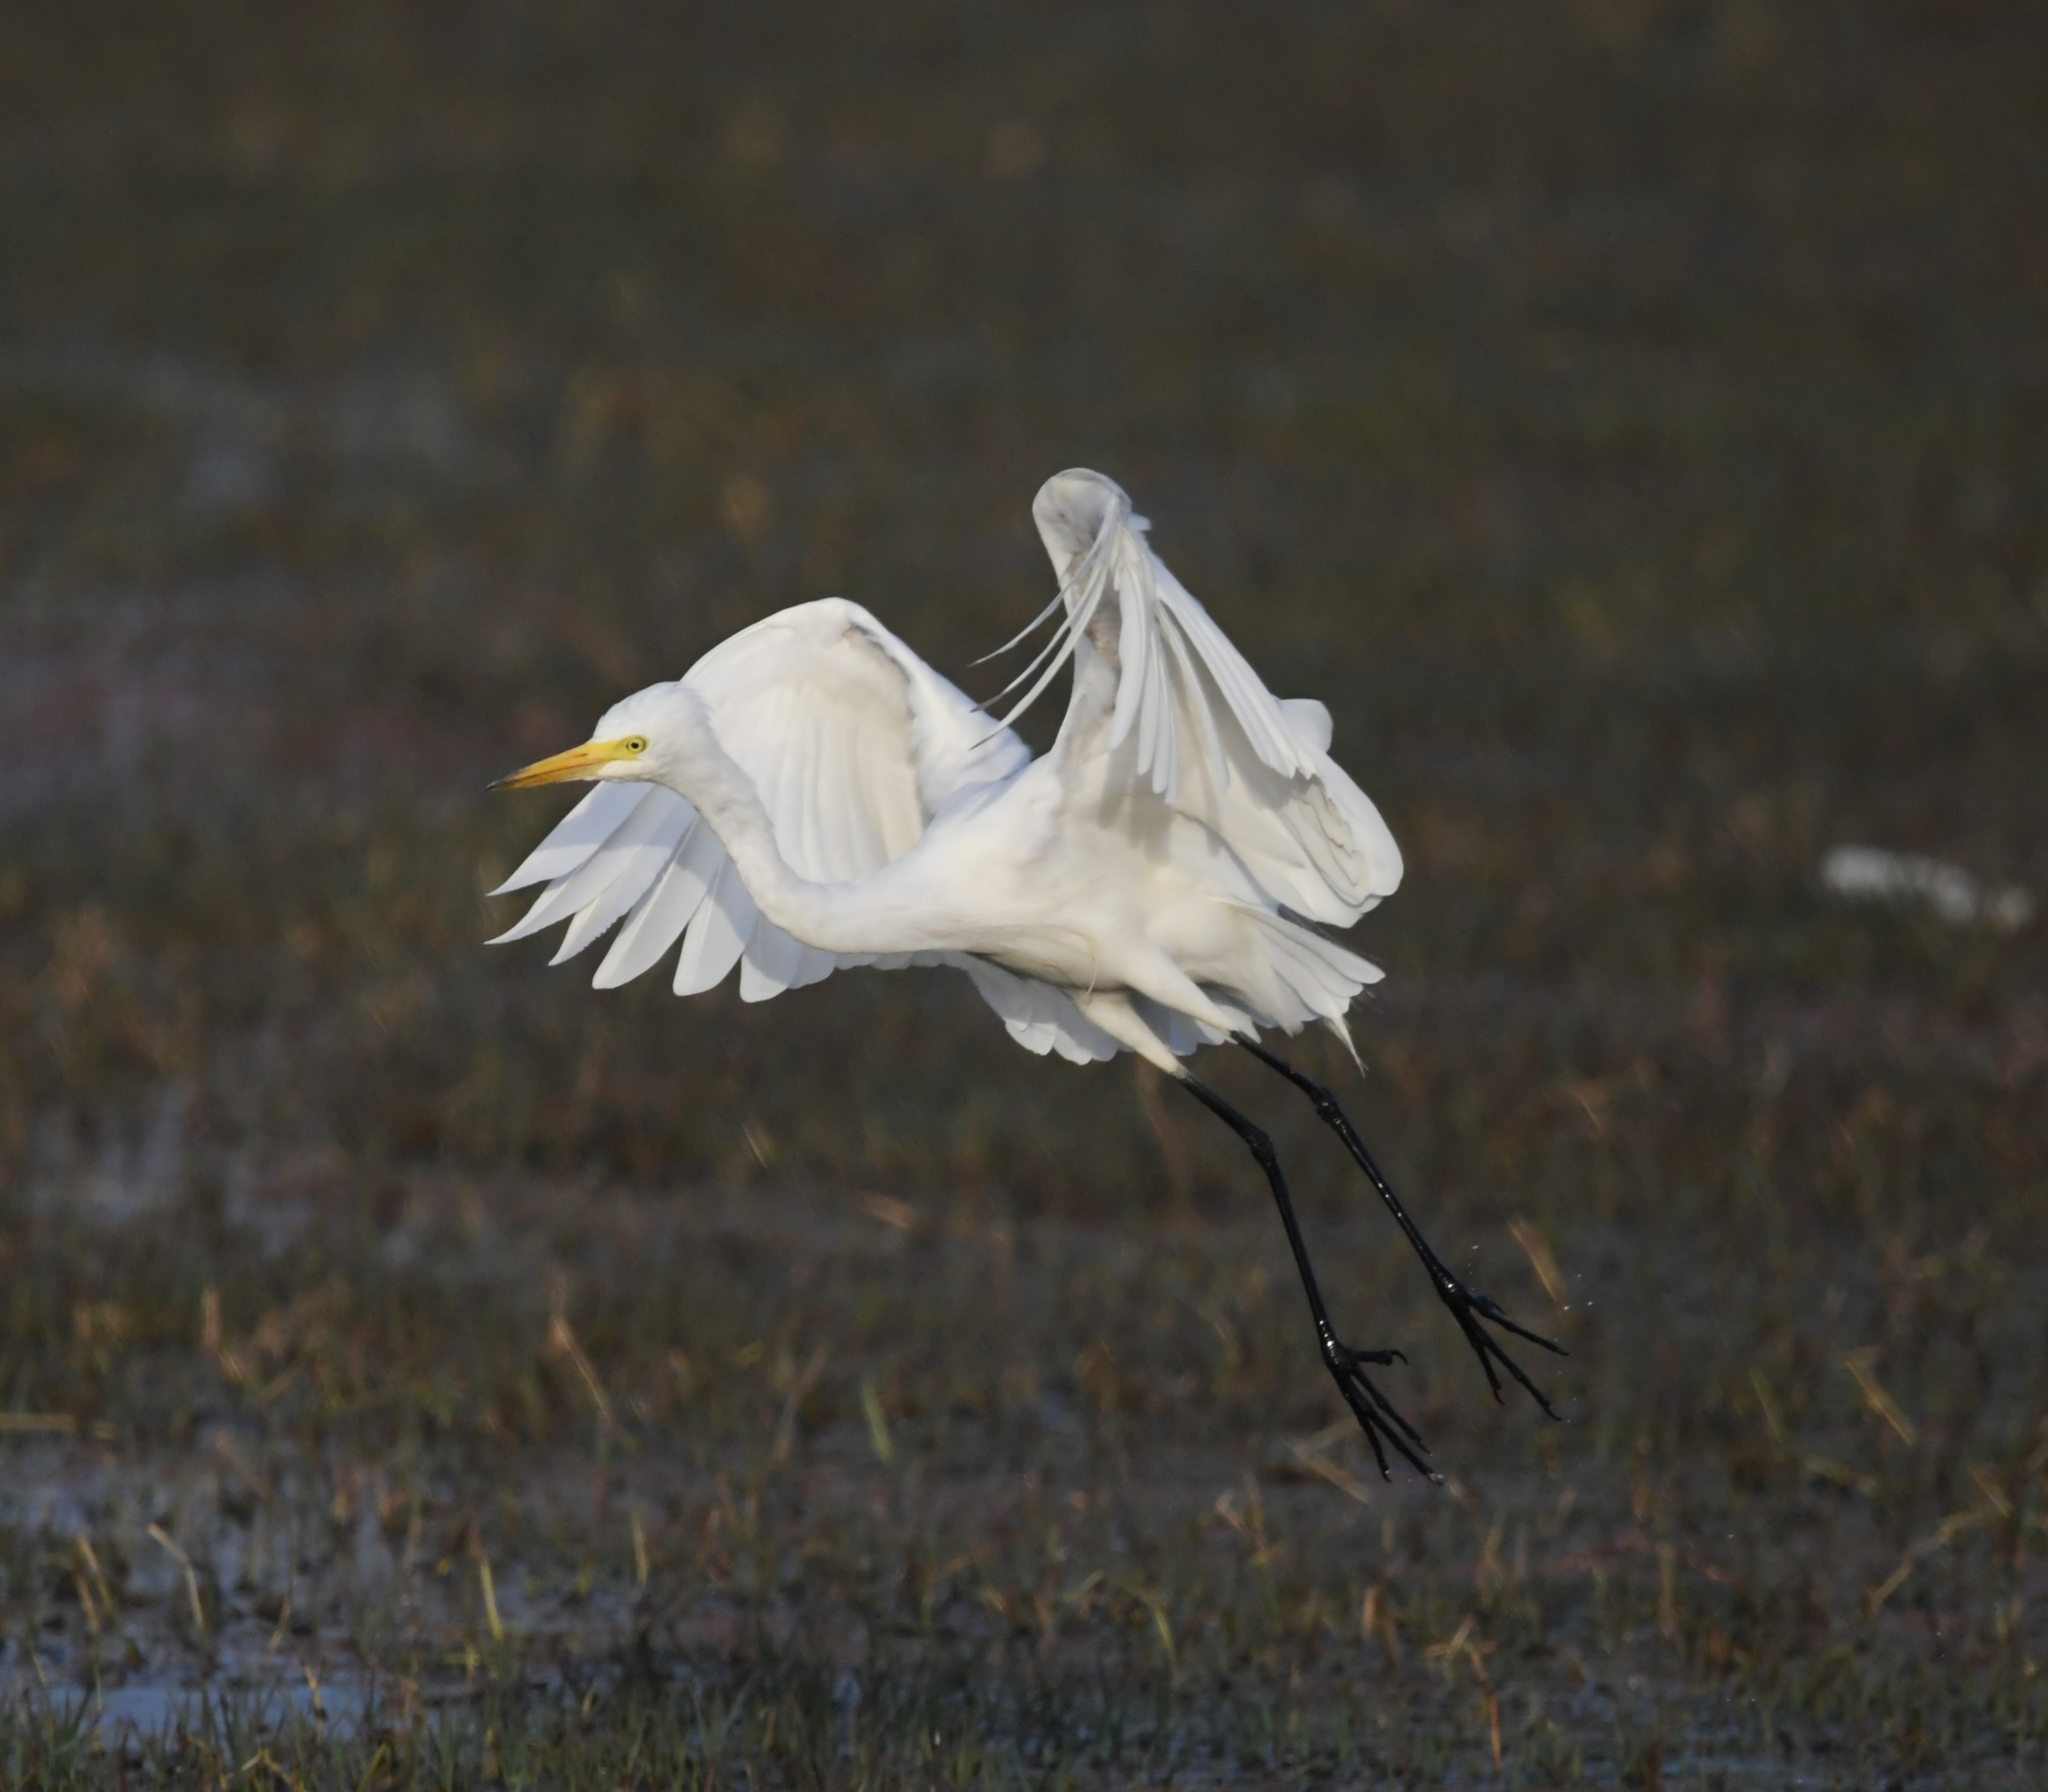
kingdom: Animalia
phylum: Chordata
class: Aves
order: Pelecaniformes
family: Ardeidae
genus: Egretta
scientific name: Egretta intermedia
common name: Intermediate egret
